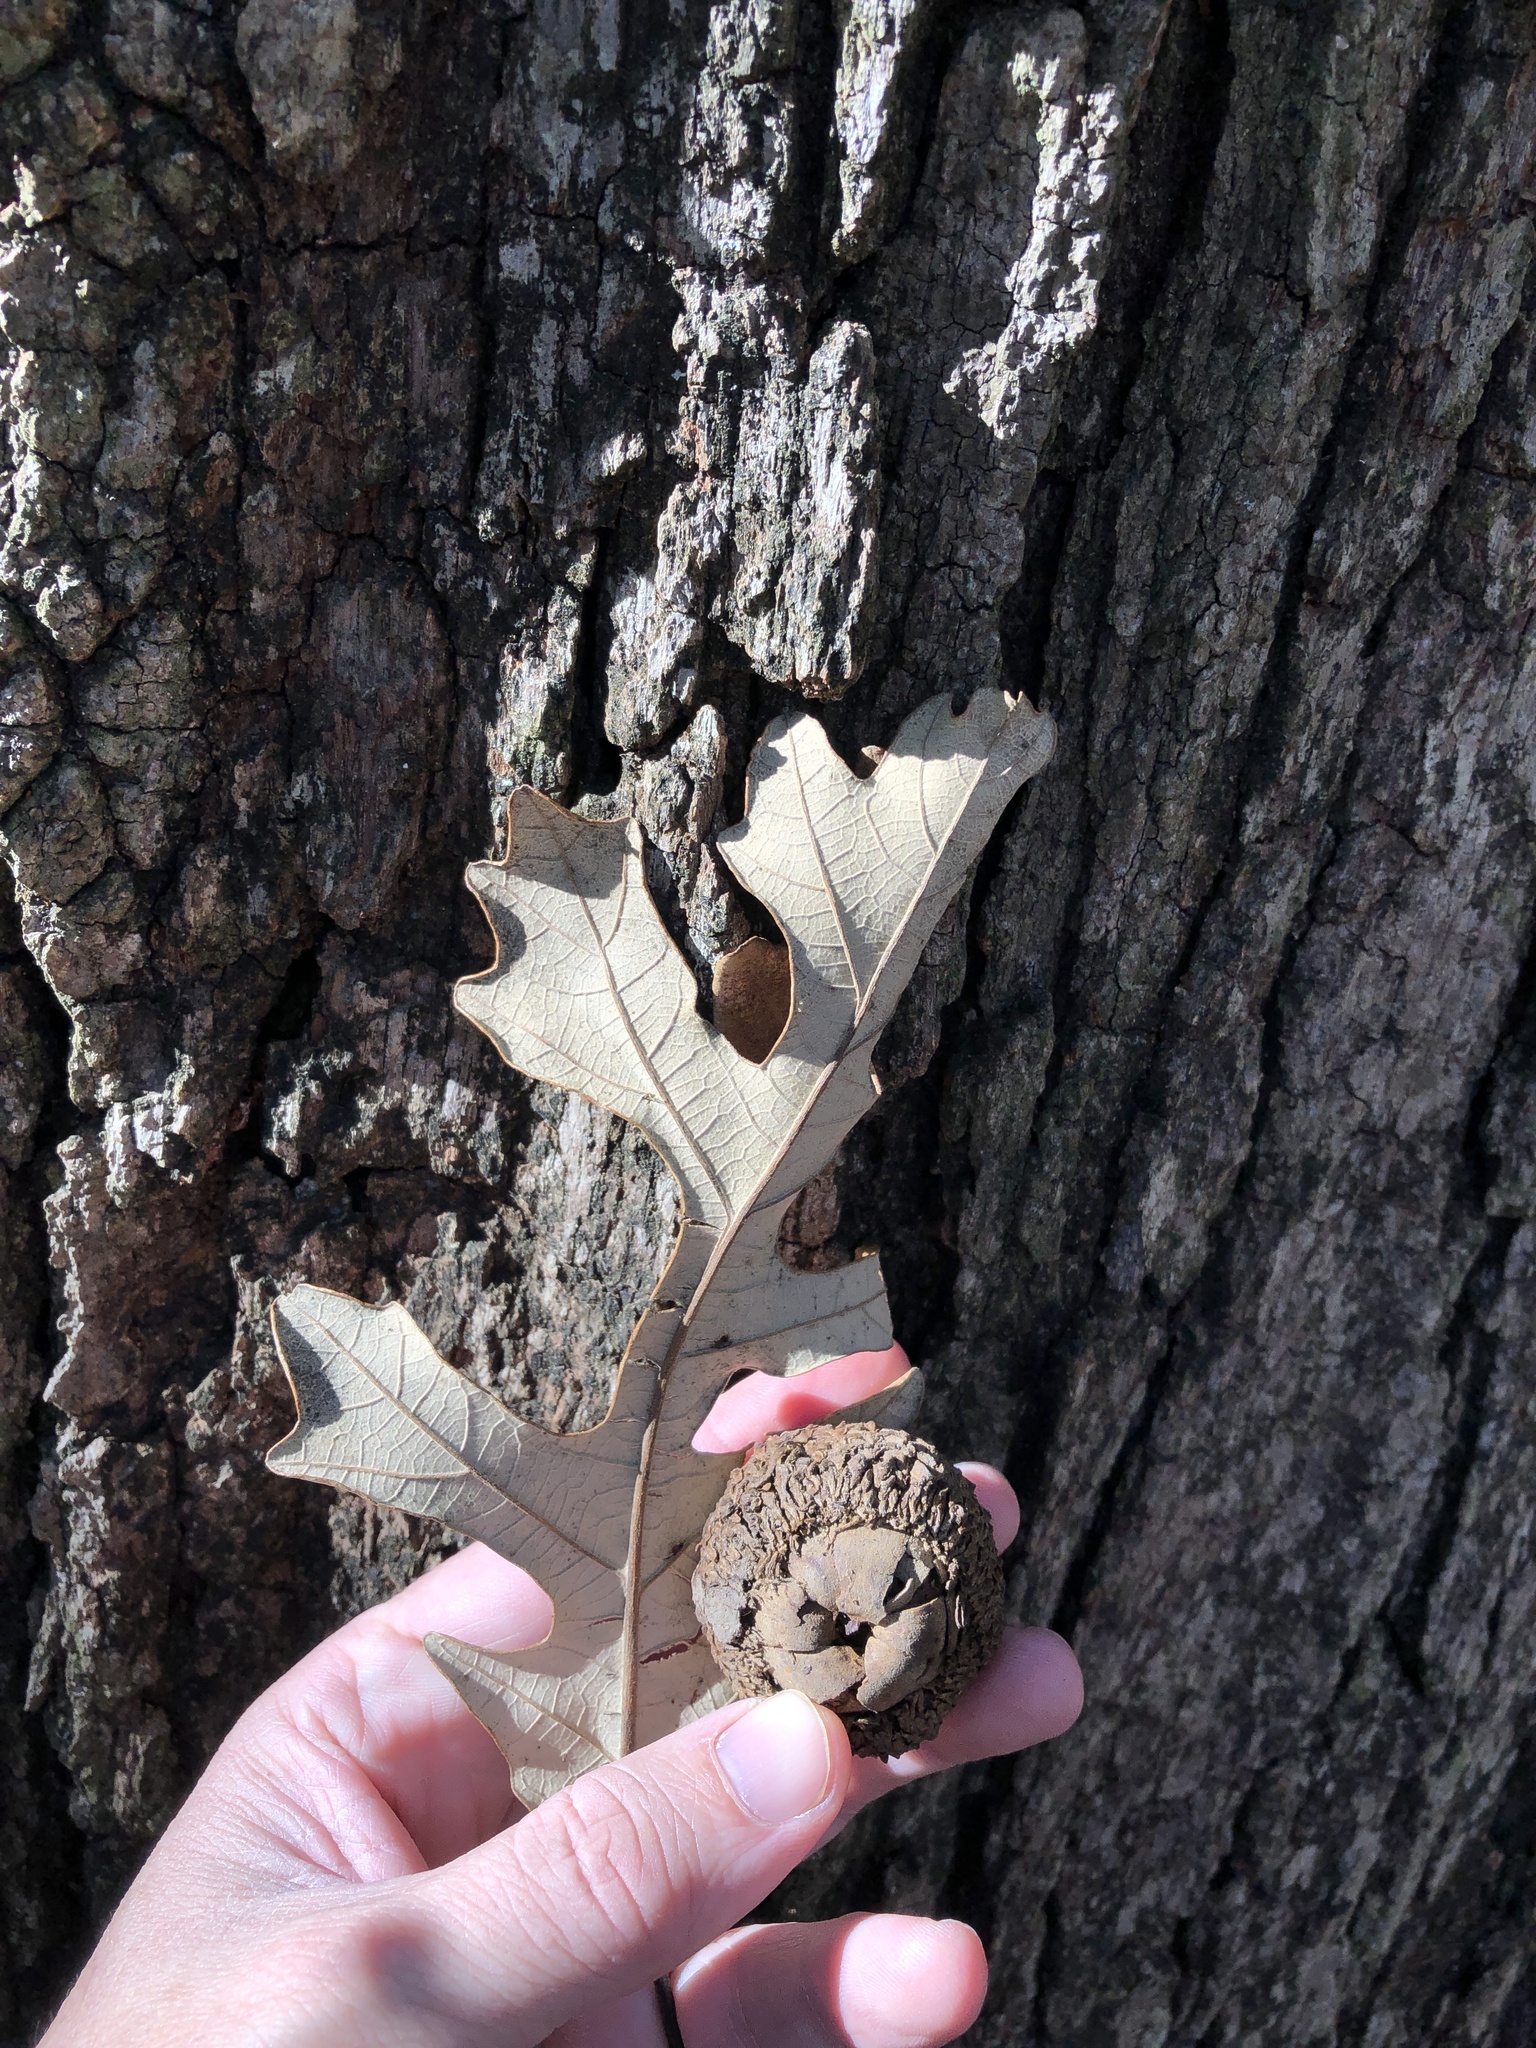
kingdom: Plantae
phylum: Tracheophyta
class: Magnoliopsida
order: Fagales
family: Fagaceae
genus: Quercus
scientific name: Quercus macrocarpa
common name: Bur oak
